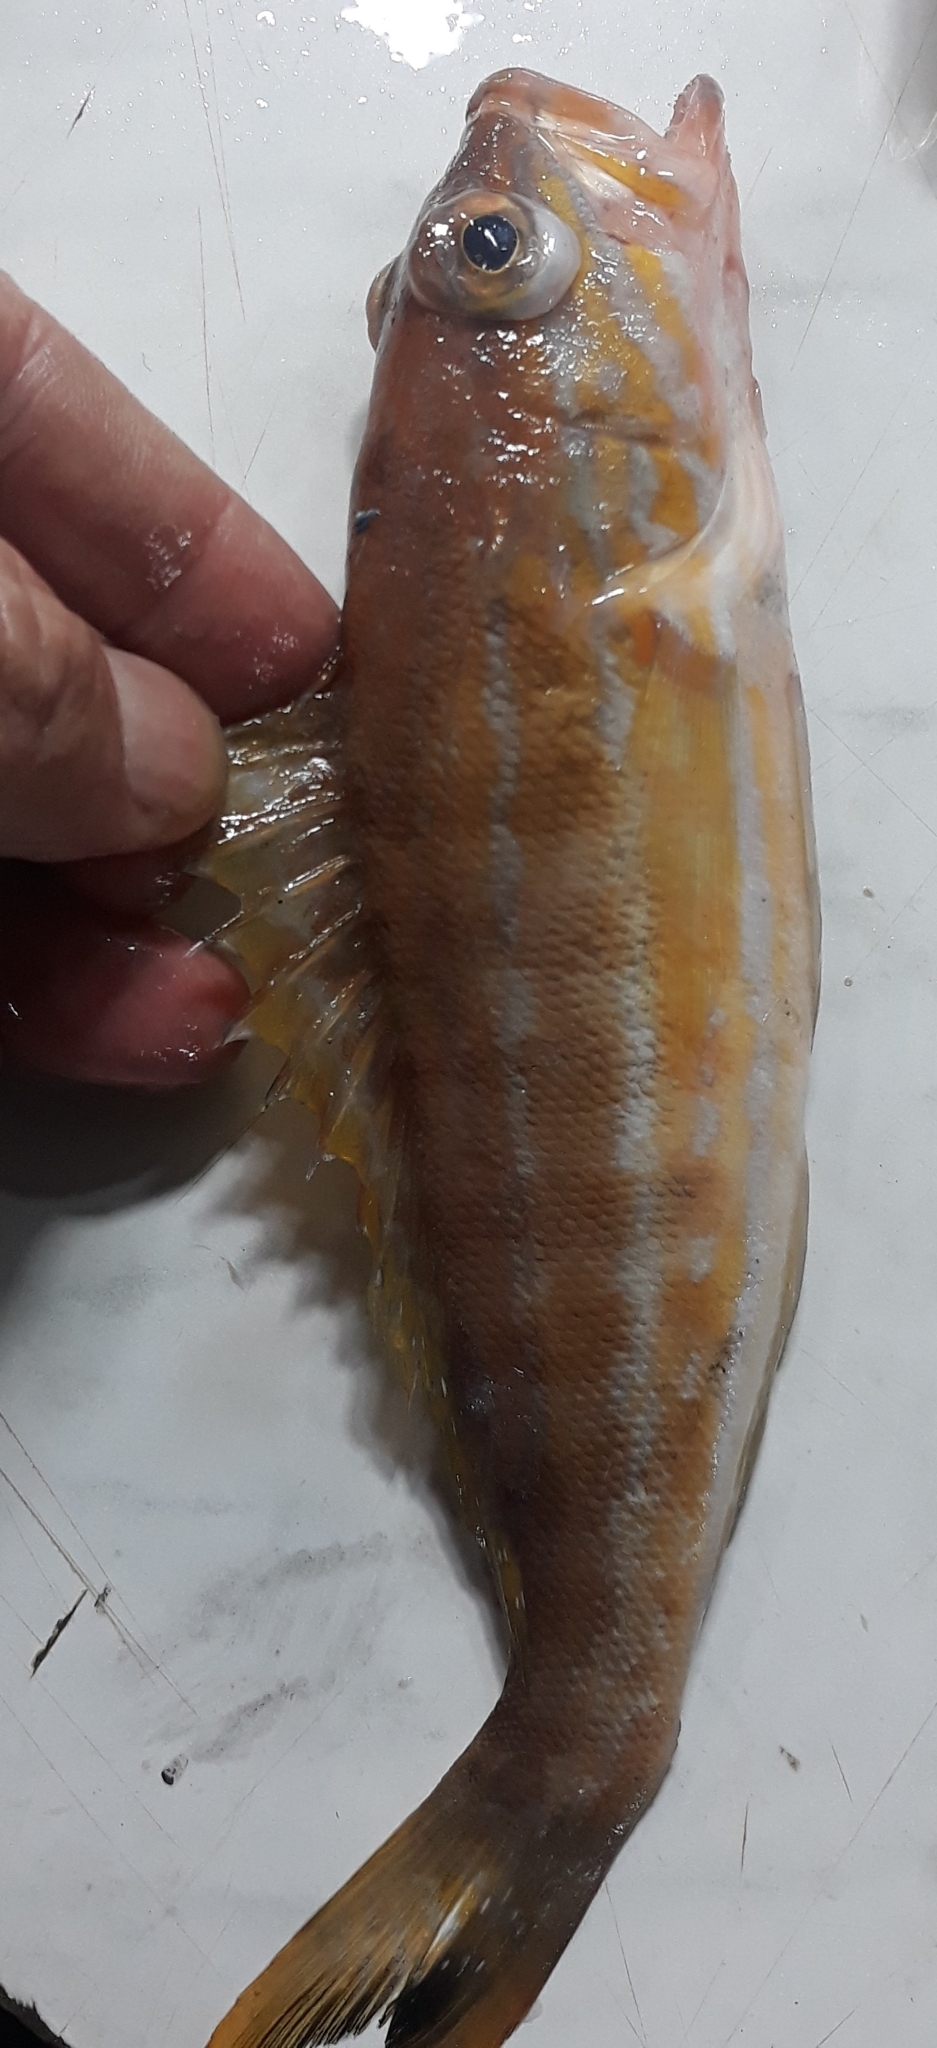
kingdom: Animalia
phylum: Chordata
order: Perciformes
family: Serranidae
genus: Serranus
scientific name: Serranus cabrilla
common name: Comber
